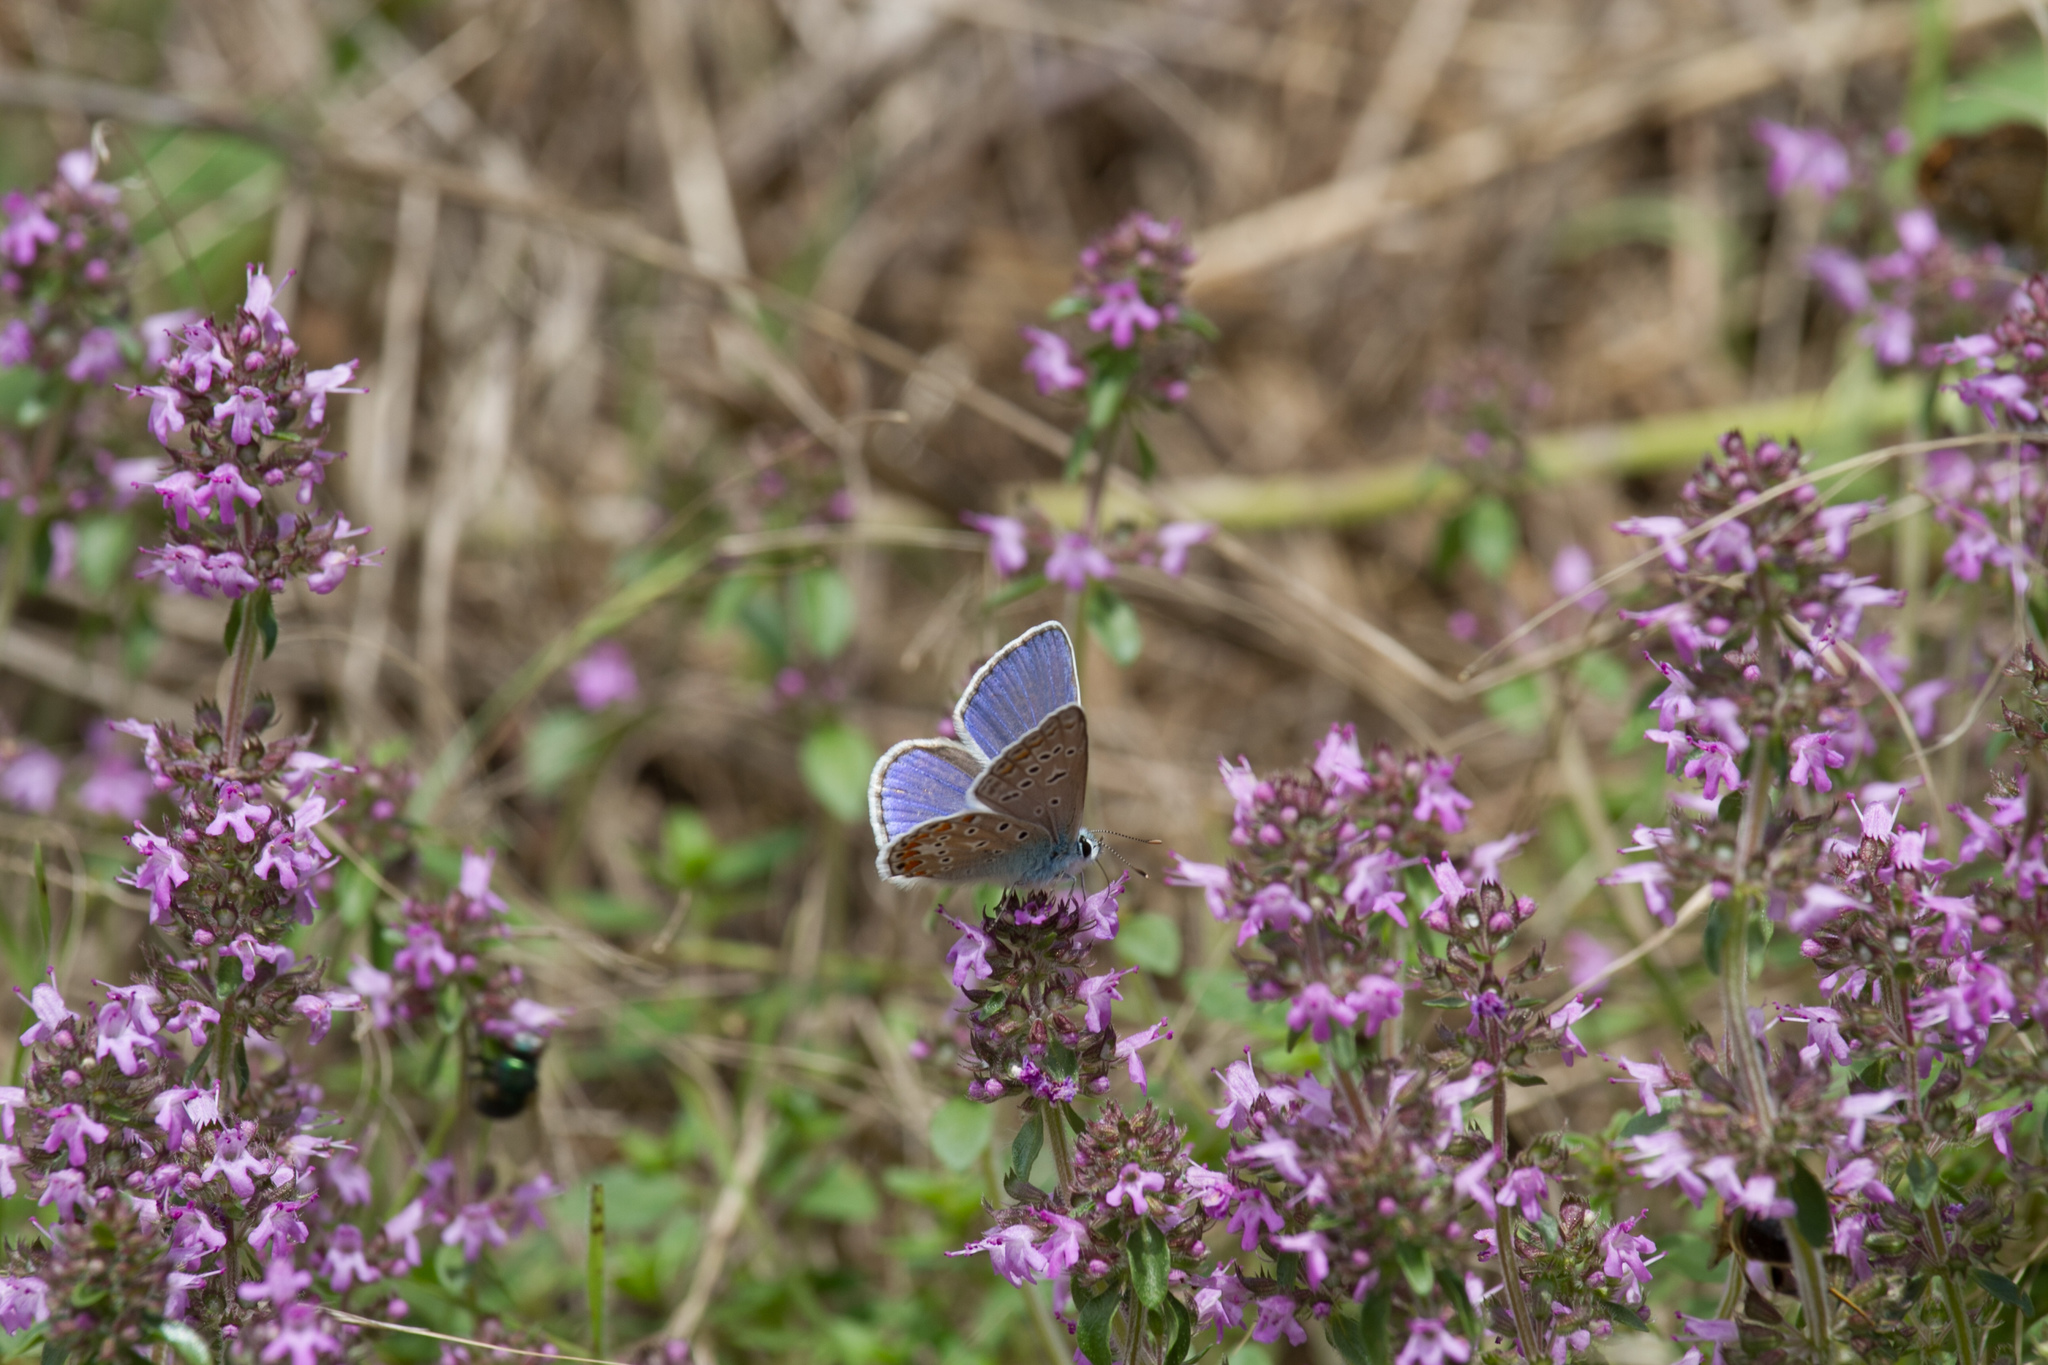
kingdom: Animalia
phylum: Arthropoda
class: Insecta
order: Lepidoptera
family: Lycaenidae
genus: Polyommatus
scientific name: Polyommatus icarus
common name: Common blue
